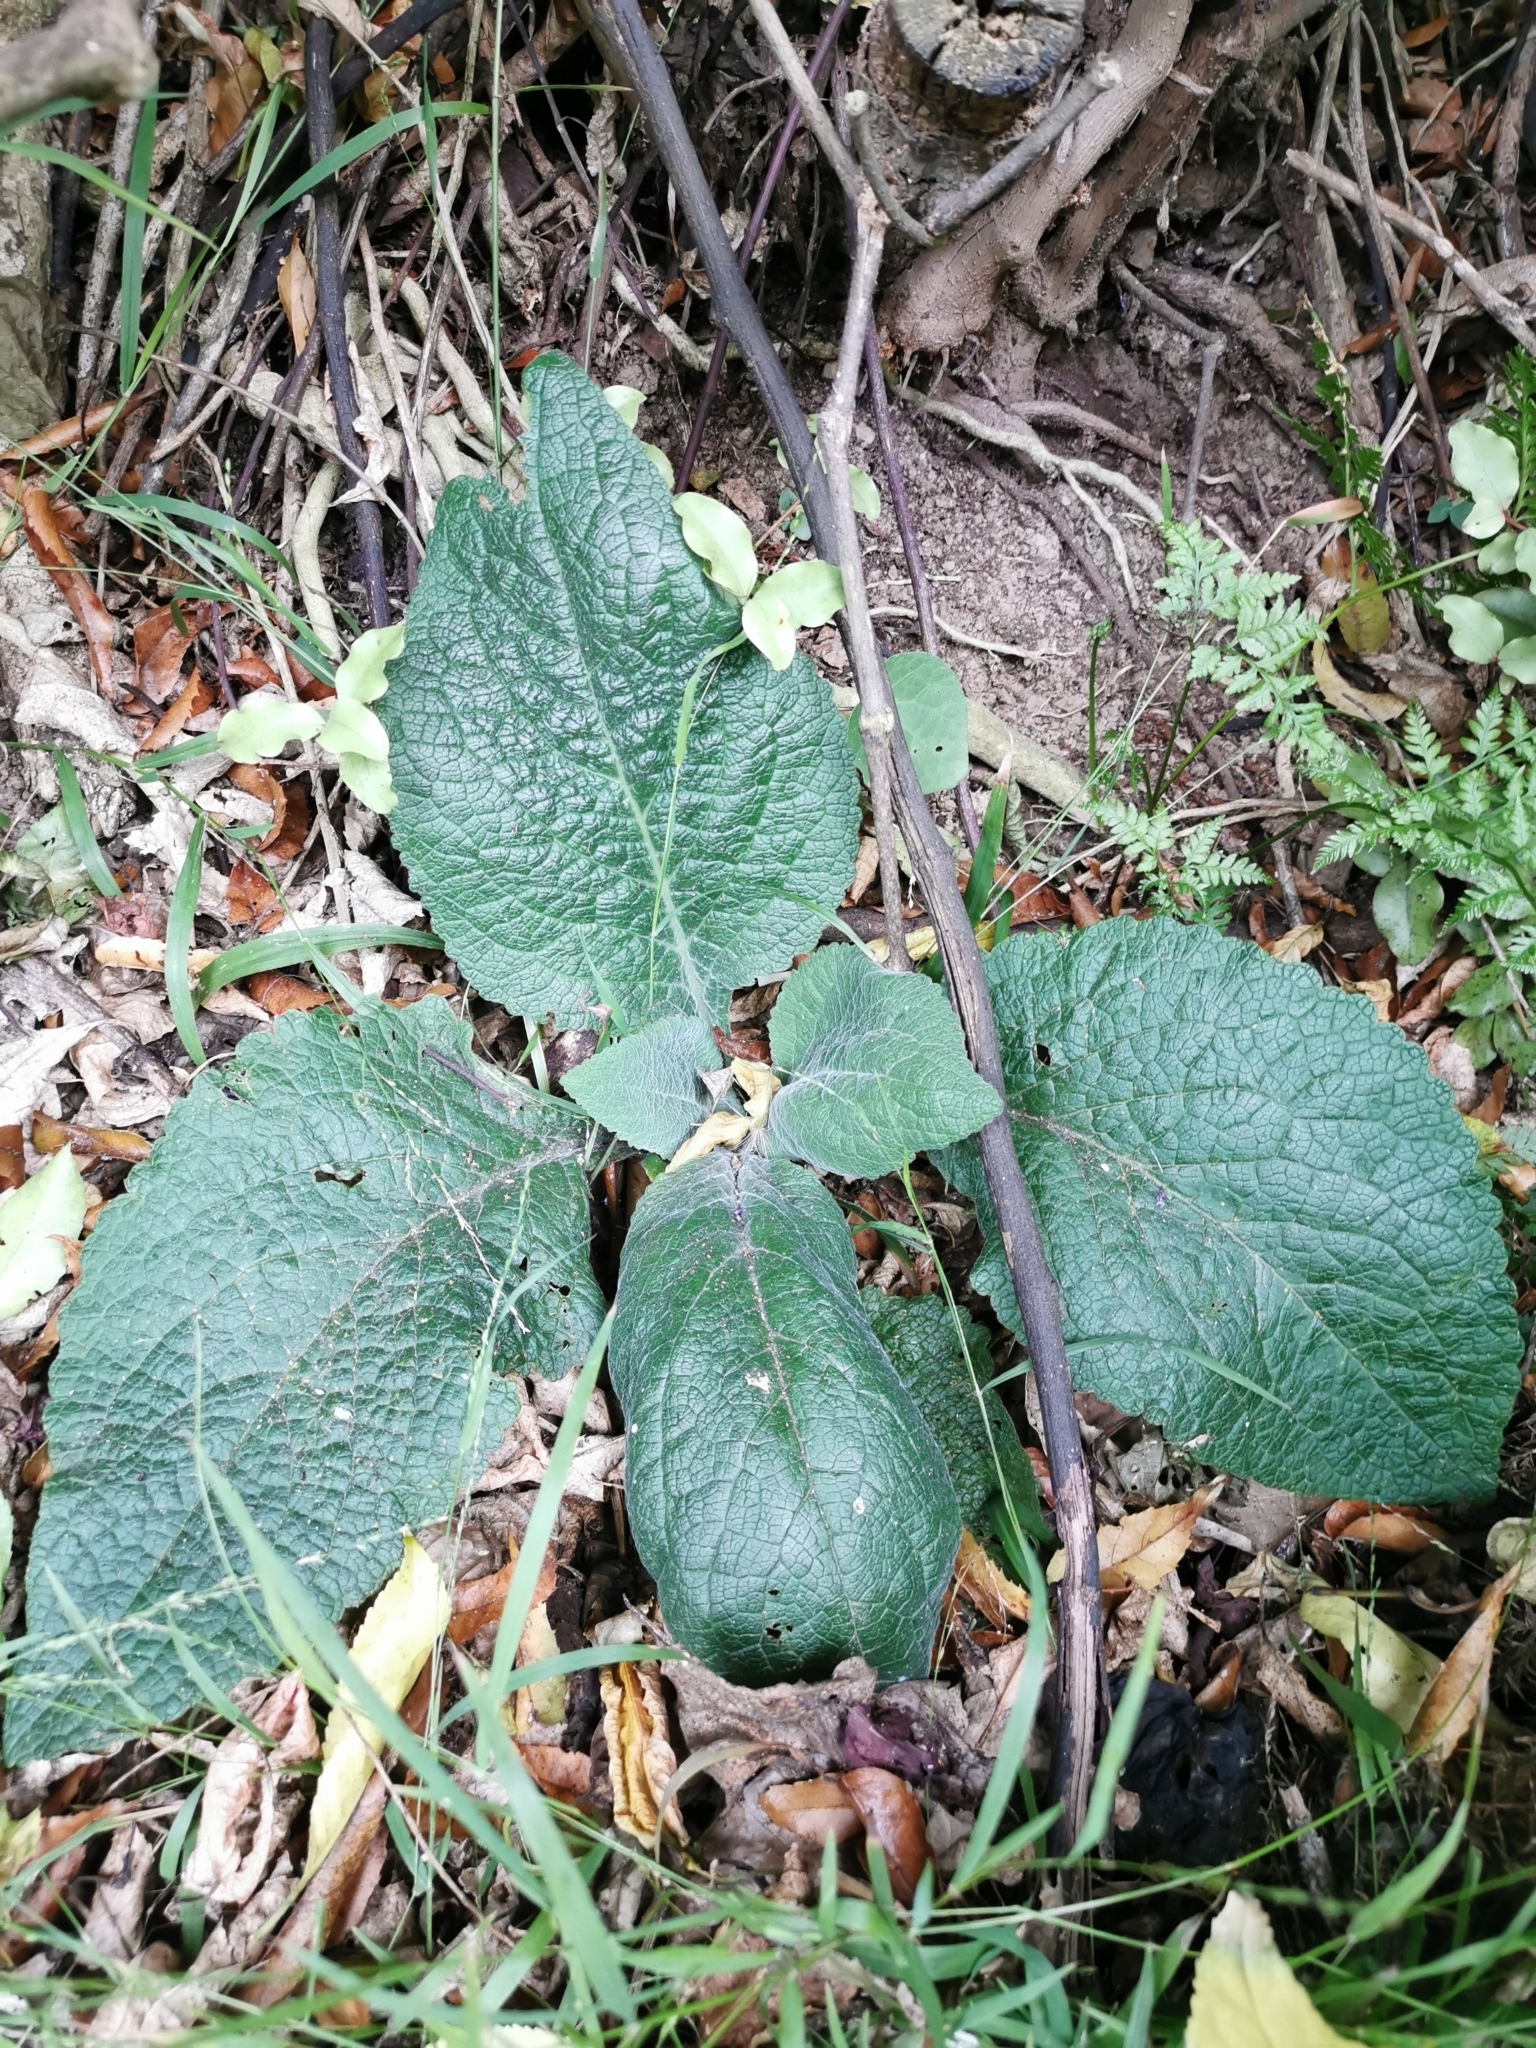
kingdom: Plantae
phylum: Tracheophyta
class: Magnoliopsida
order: Lamiales
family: Plantaginaceae
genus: Digitalis
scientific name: Digitalis purpurea
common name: Foxglove
